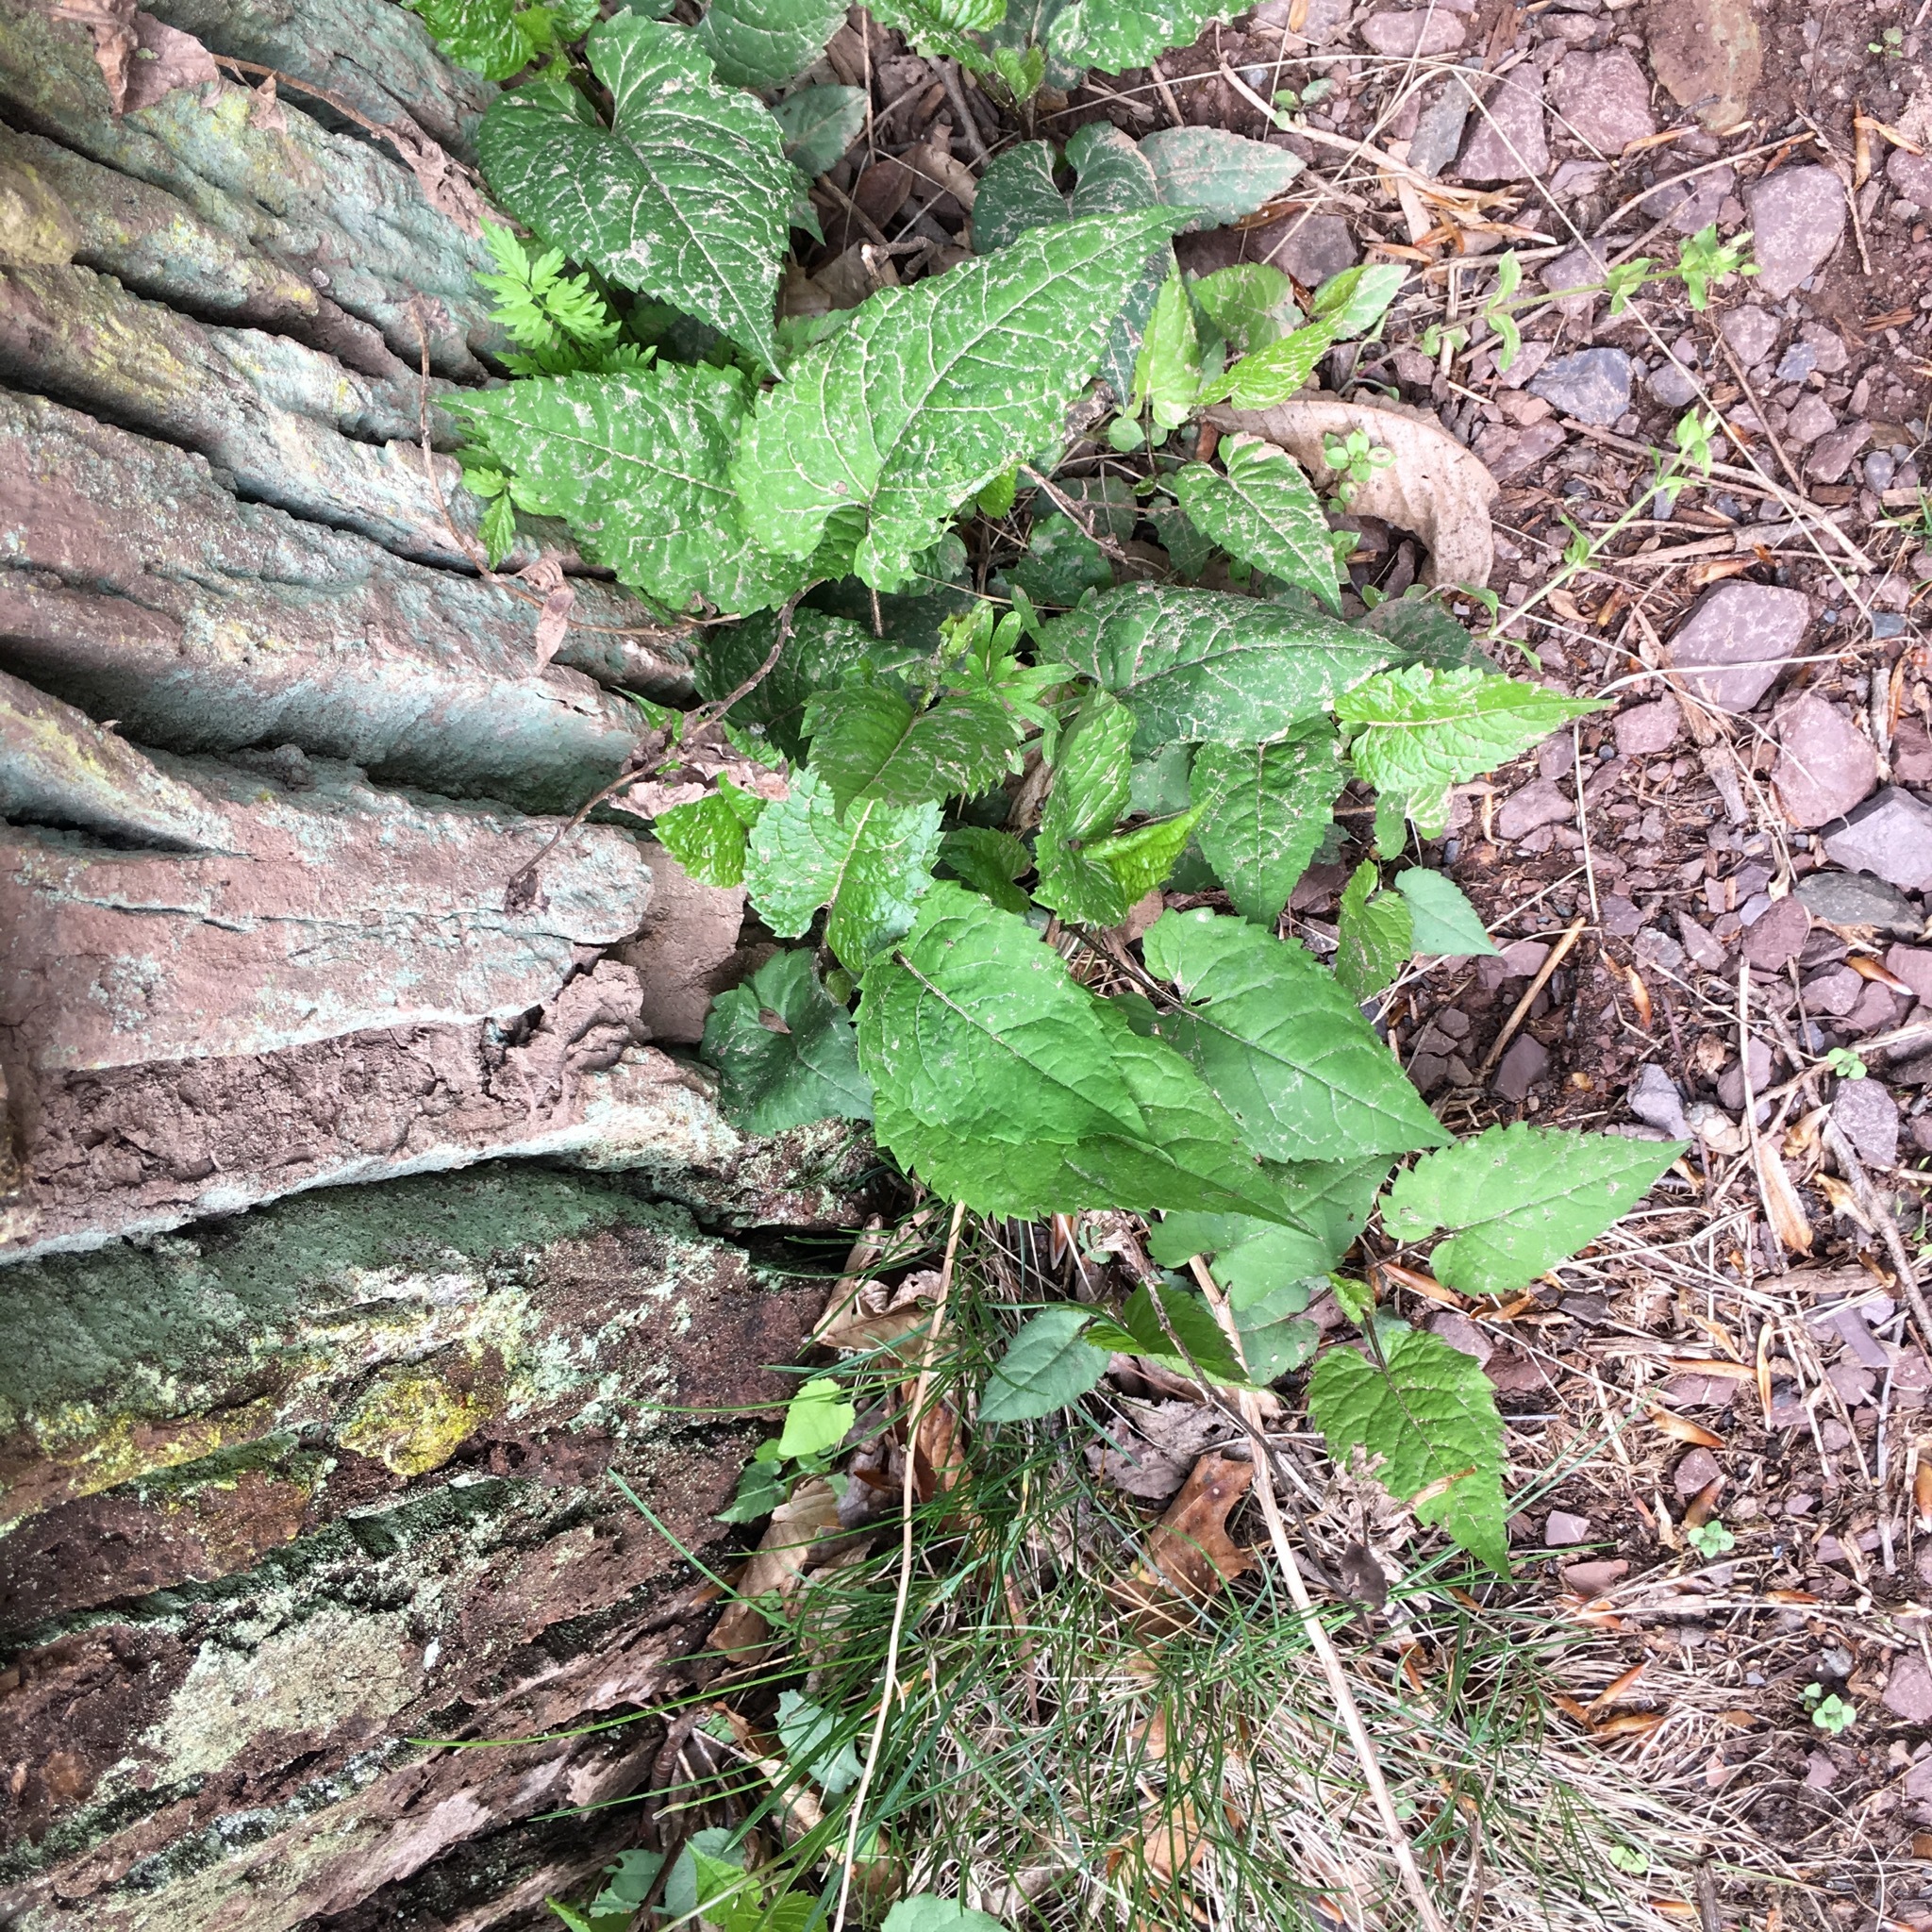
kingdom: Plantae
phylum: Tracheophyta
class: Magnoliopsida
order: Asterales
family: Asteraceae
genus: Eurybia
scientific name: Eurybia divaricata
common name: White wood aster
